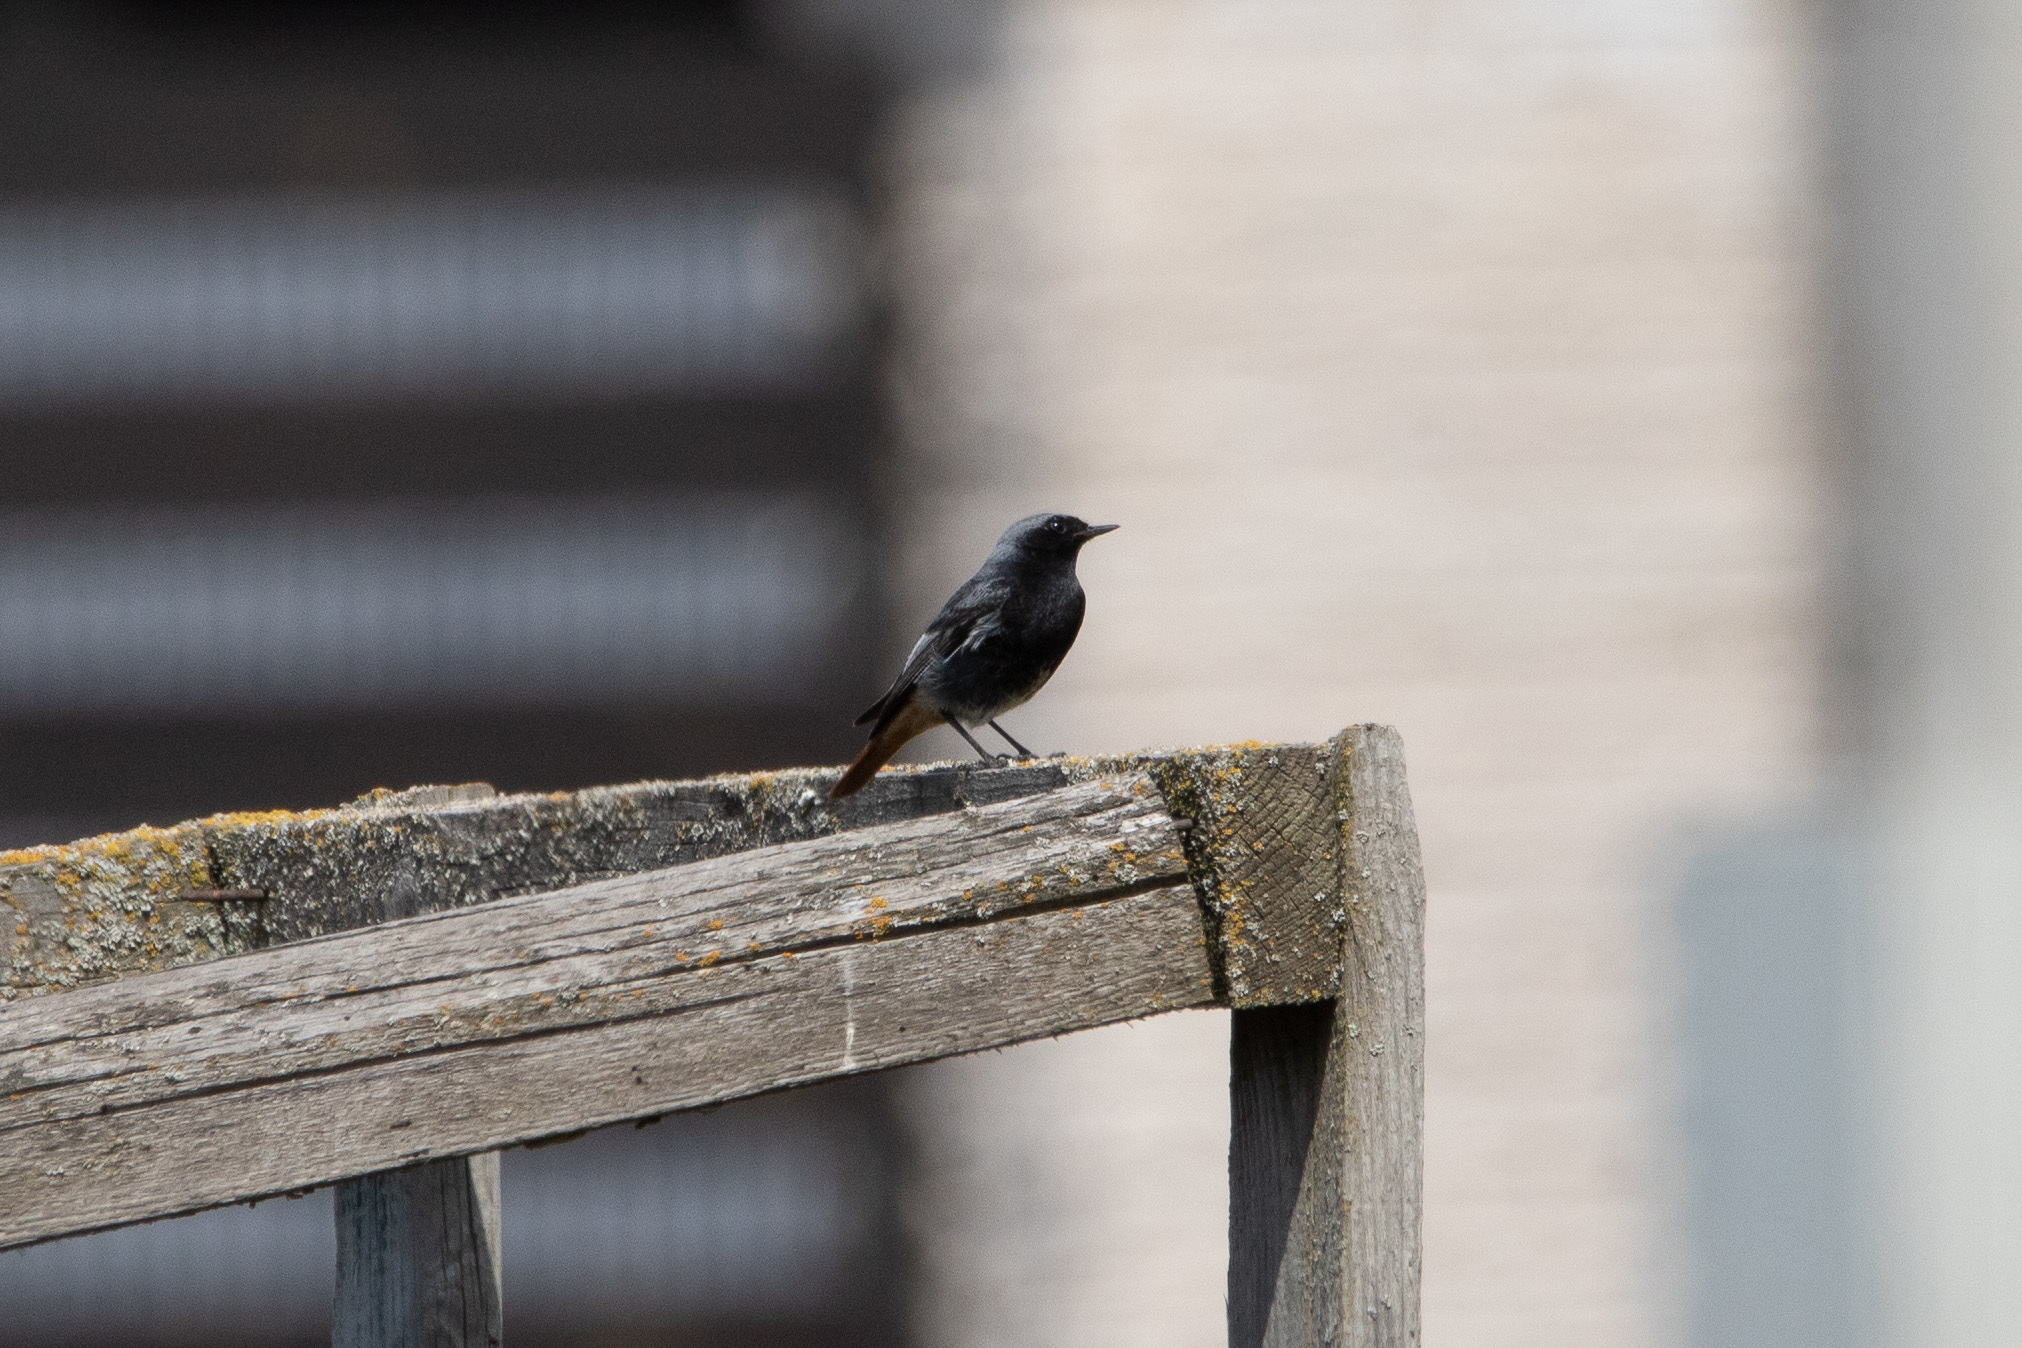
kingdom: Animalia
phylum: Chordata
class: Aves
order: Passeriformes
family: Muscicapidae
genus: Phoenicurus
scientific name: Phoenicurus ochruros
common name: Black redstart
